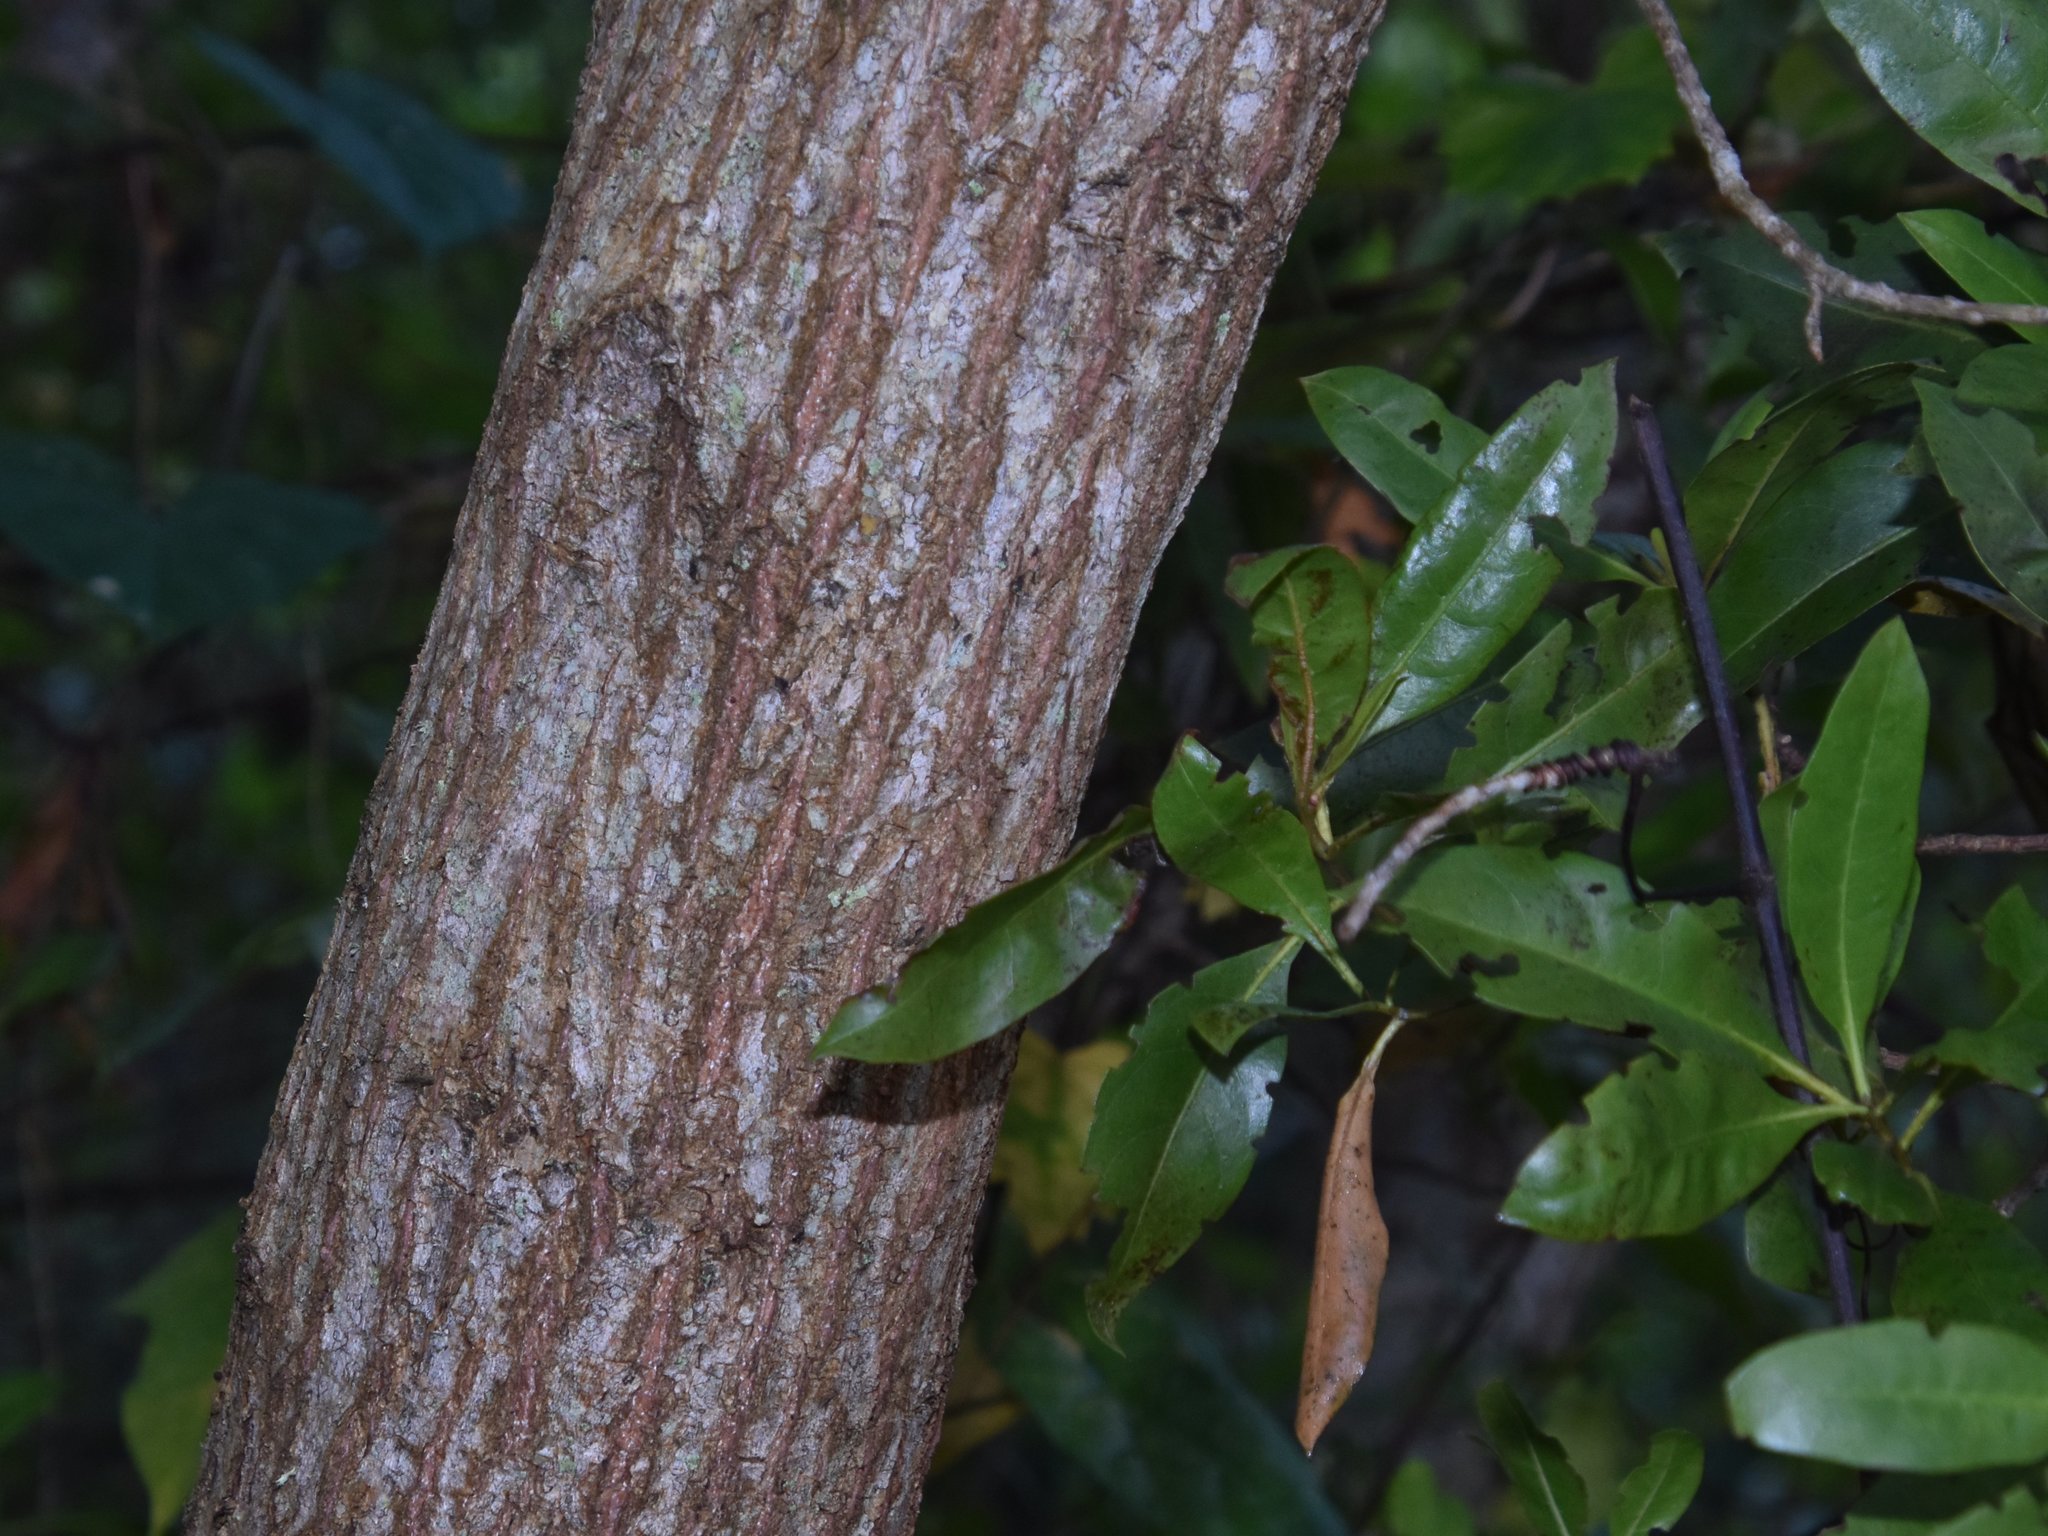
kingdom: Plantae
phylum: Tracheophyta
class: Magnoliopsida
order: Myrtales
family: Combretaceae
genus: Conocarpus
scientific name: Conocarpus erectus
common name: Button mangrove
